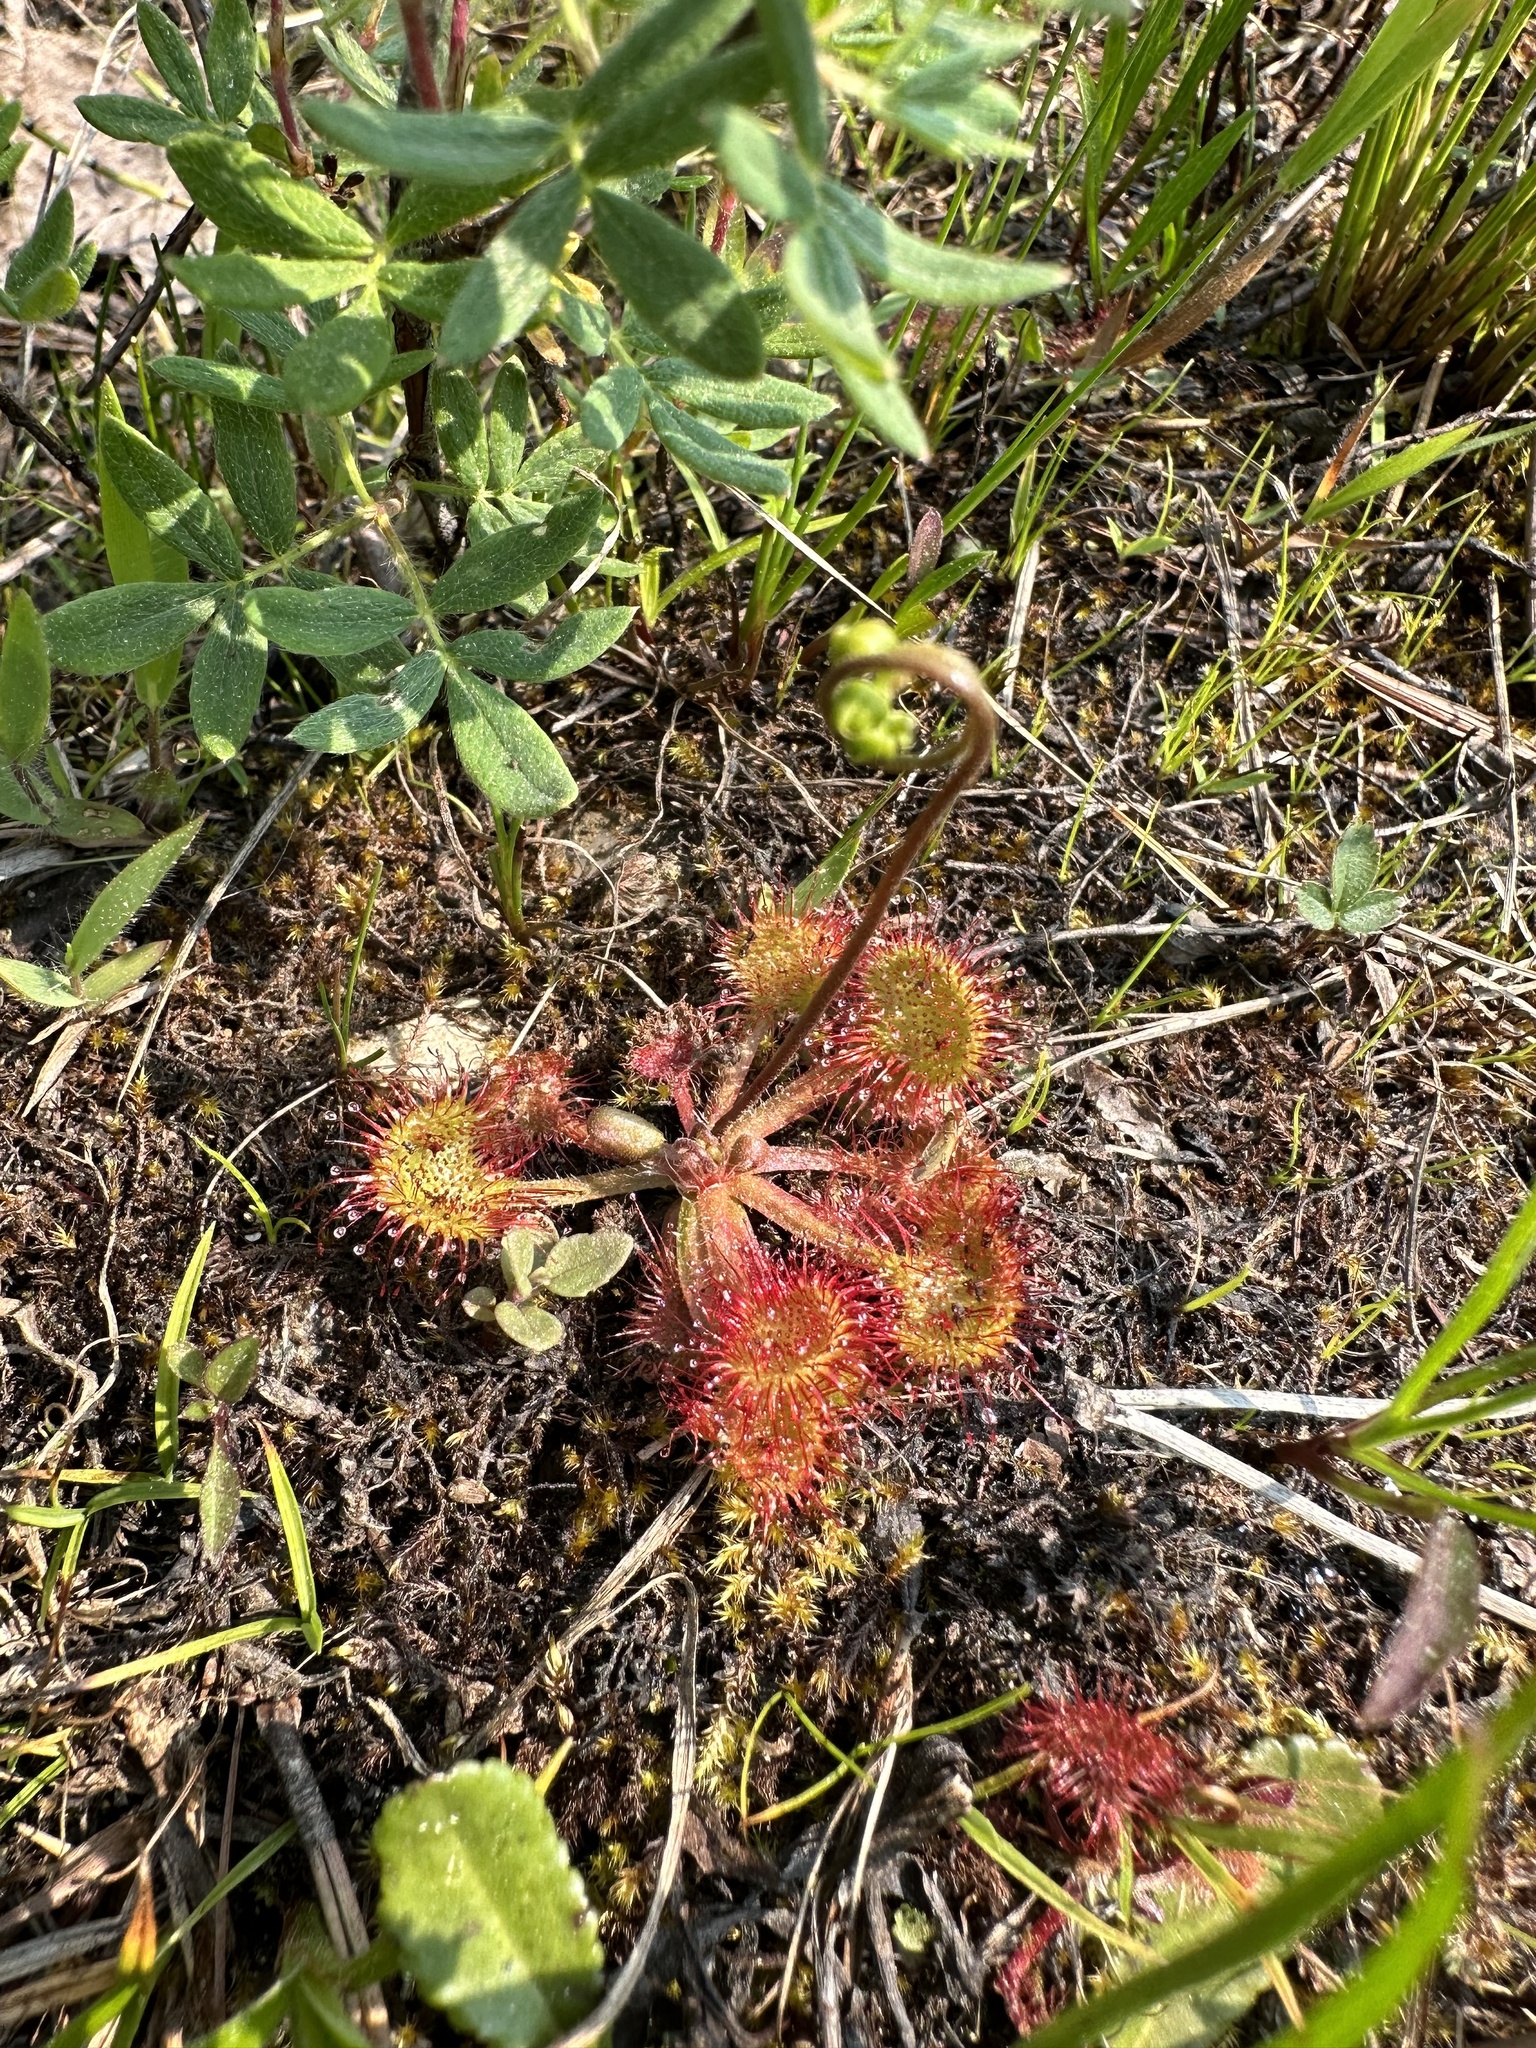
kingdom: Plantae
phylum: Tracheophyta
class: Magnoliopsida
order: Caryophyllales
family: Droseraceae
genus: Drosera
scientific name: Drosera rotundifolia
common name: Round-leaved sundew
